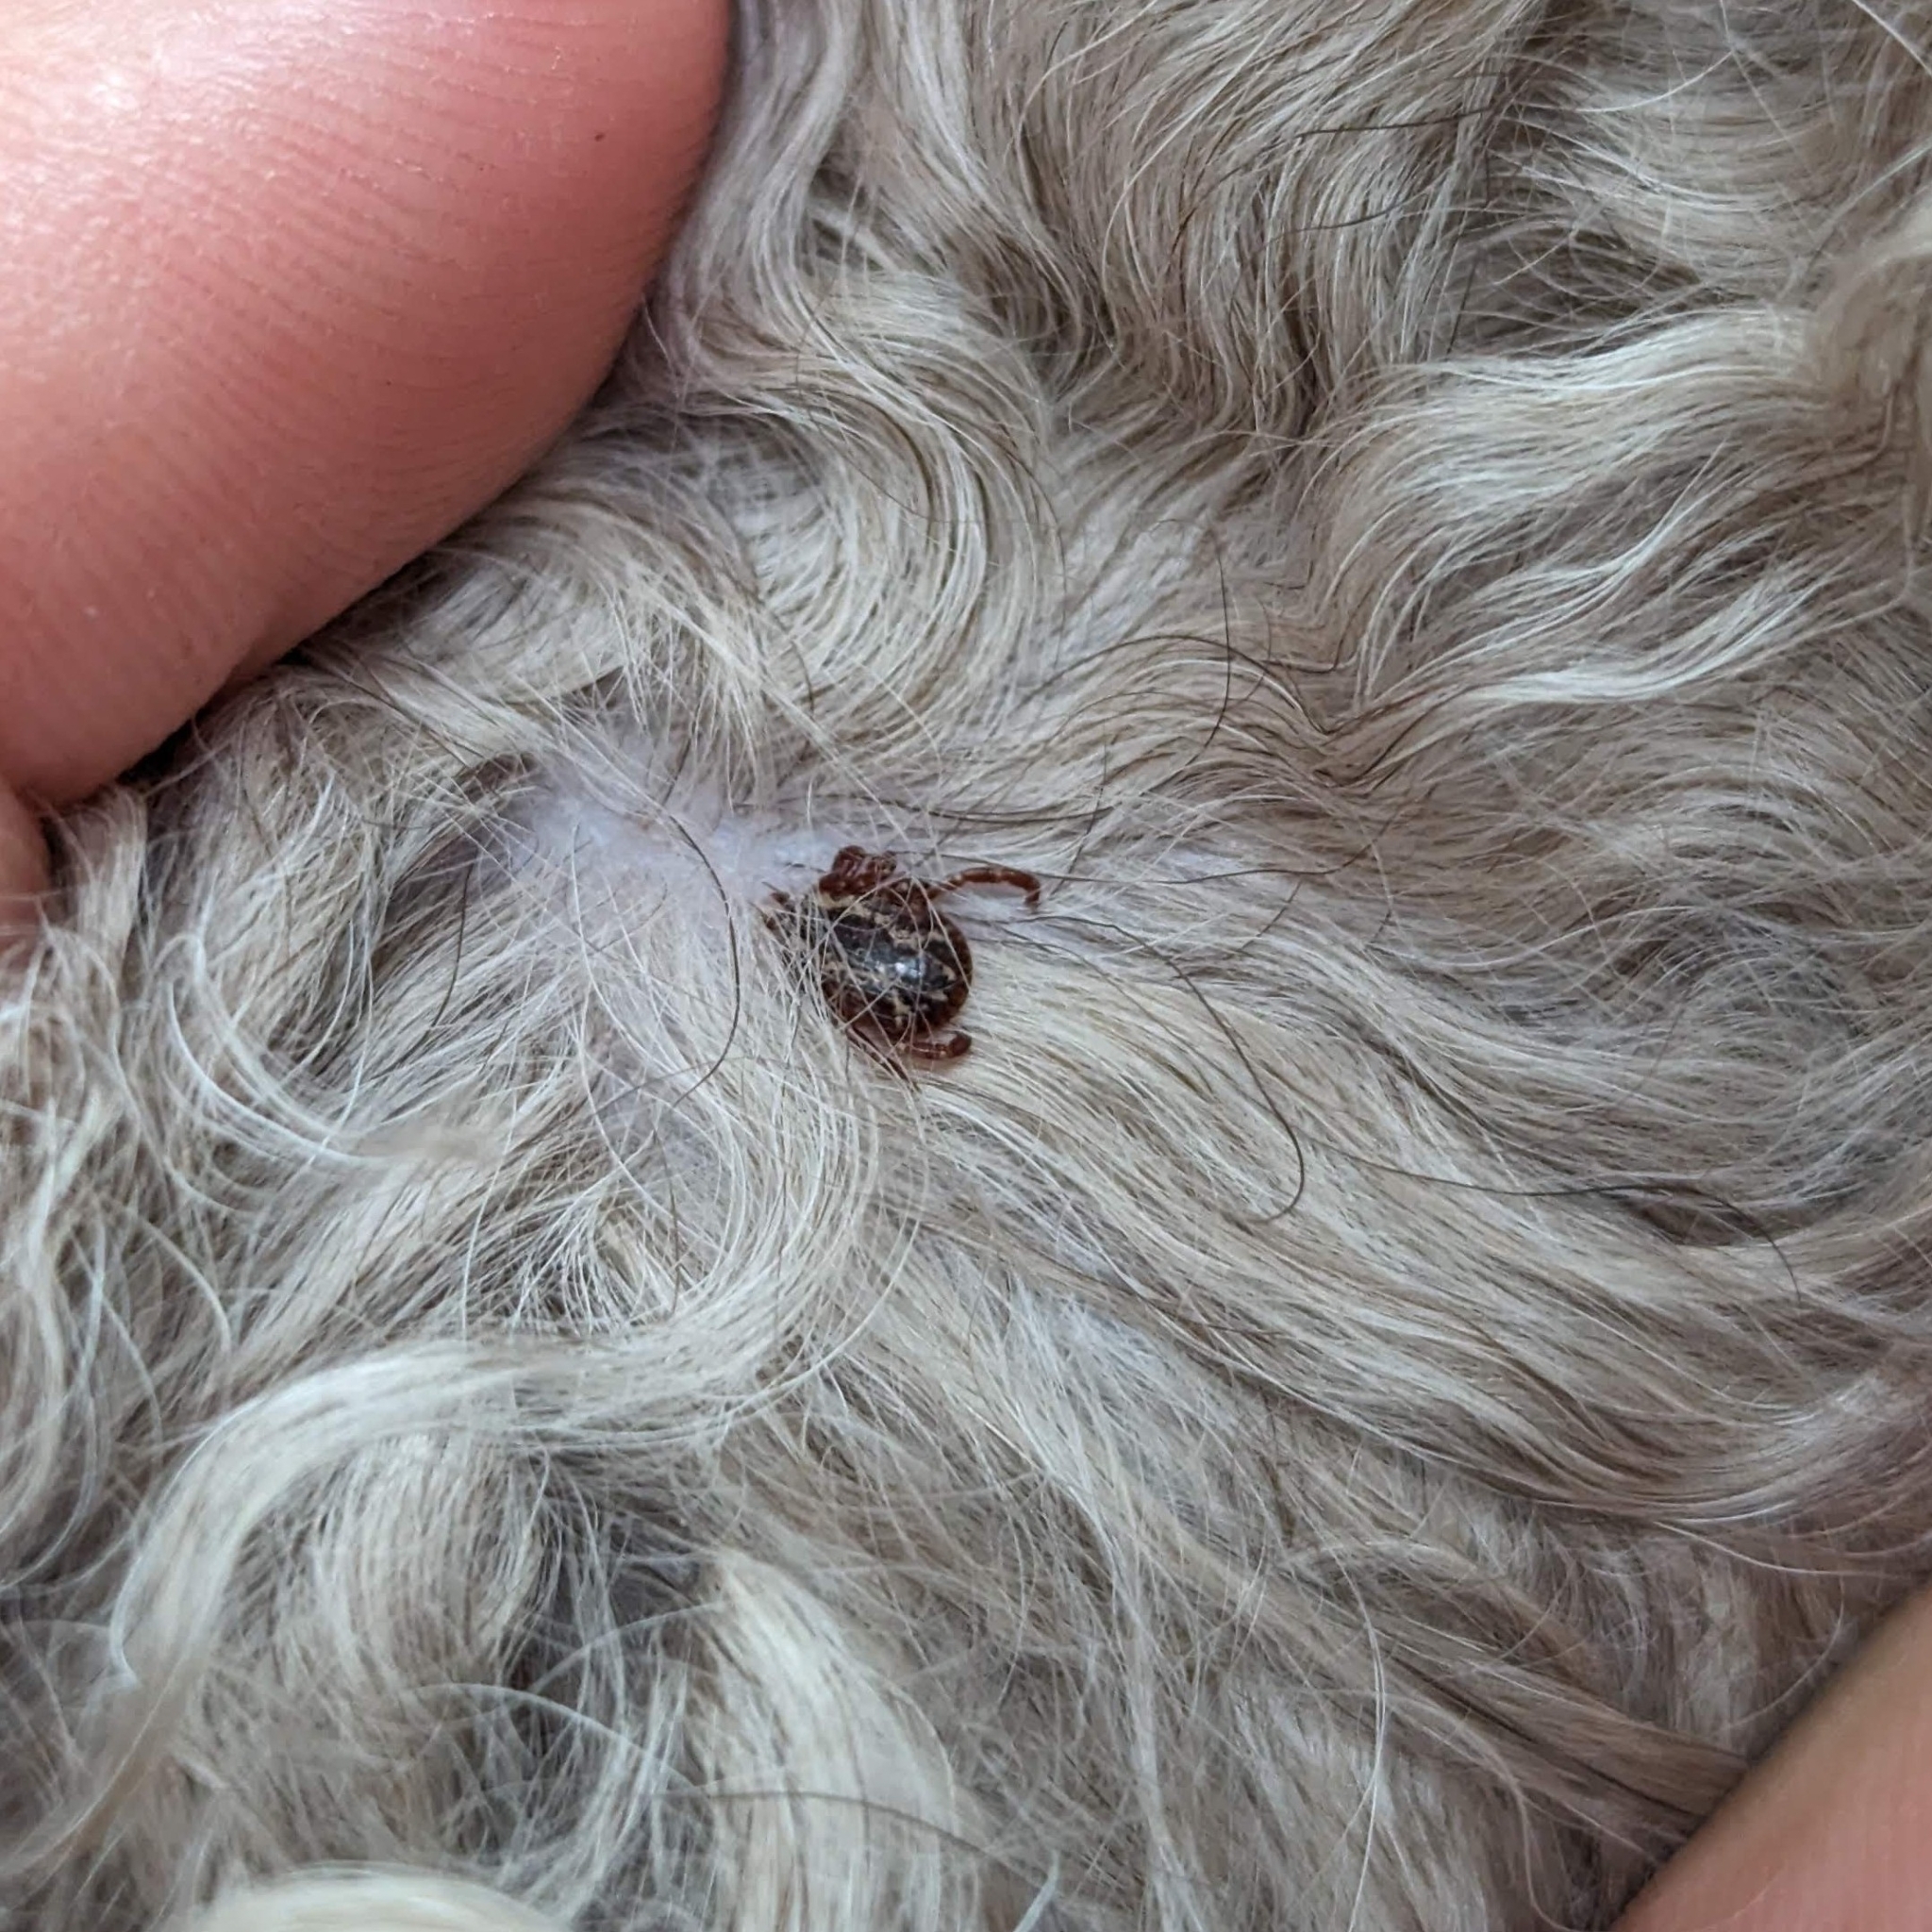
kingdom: Animalia
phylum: Arthropoda
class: Arachnida
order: Ixodida
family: Ixodidae
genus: Dermacentor
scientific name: Dermacentor variabilis
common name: American dog tick
